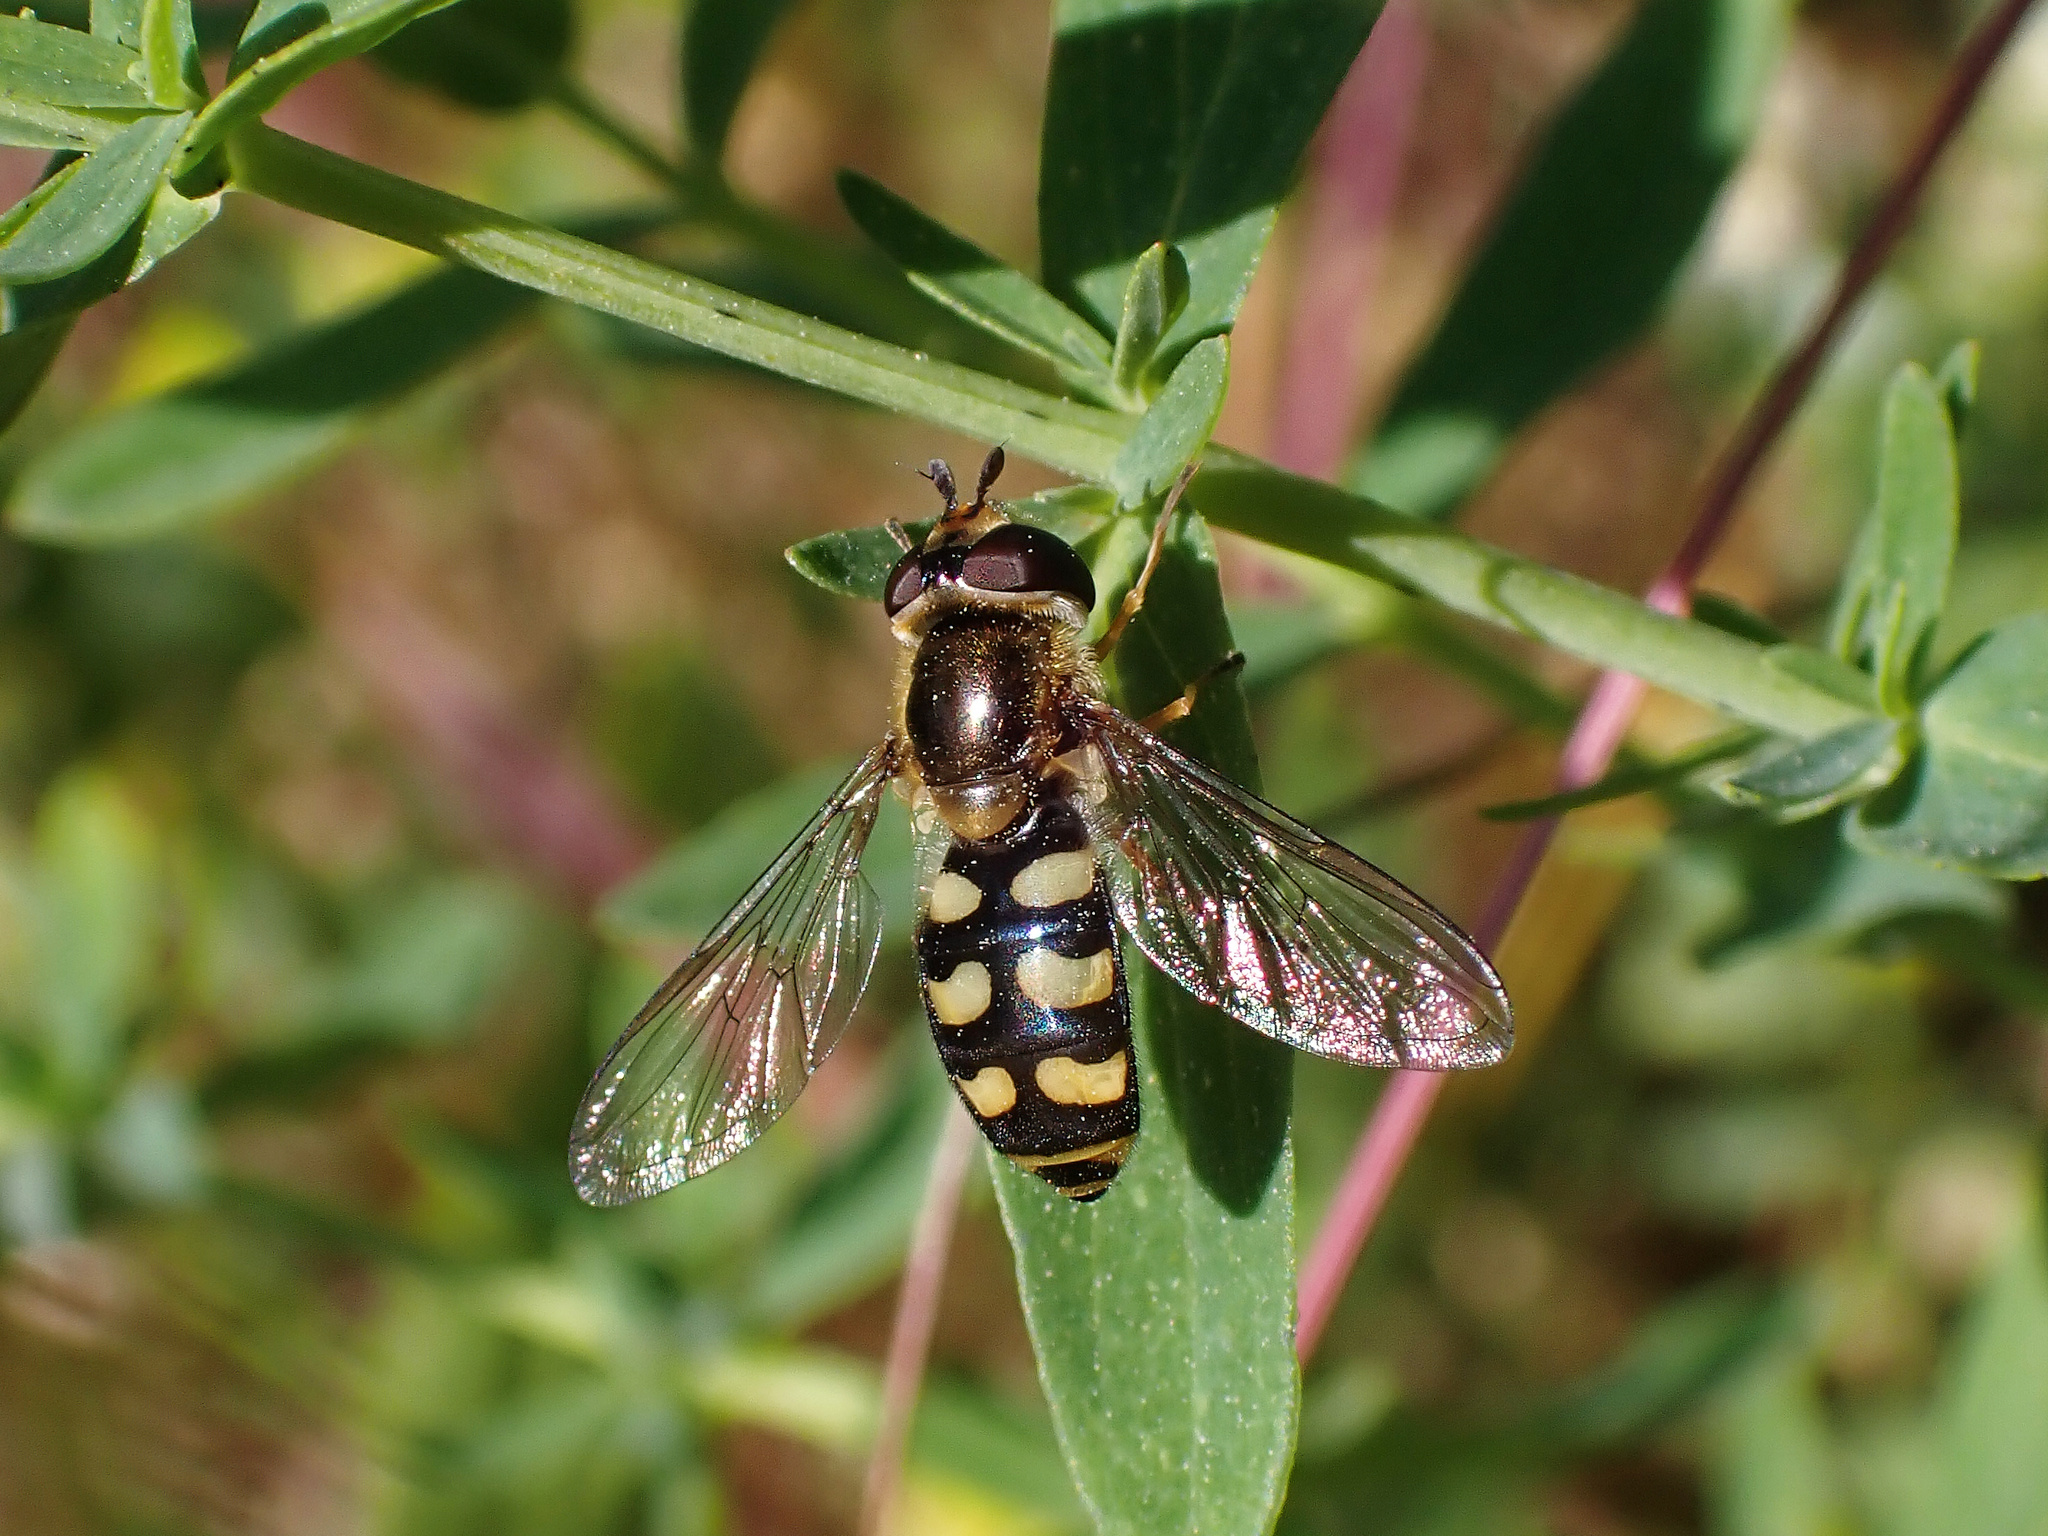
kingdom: Animalia
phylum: Arthropoda
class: Insecta
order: Diptera
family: Syrphidae
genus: Eupeodes
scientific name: Eupeodes luniger
